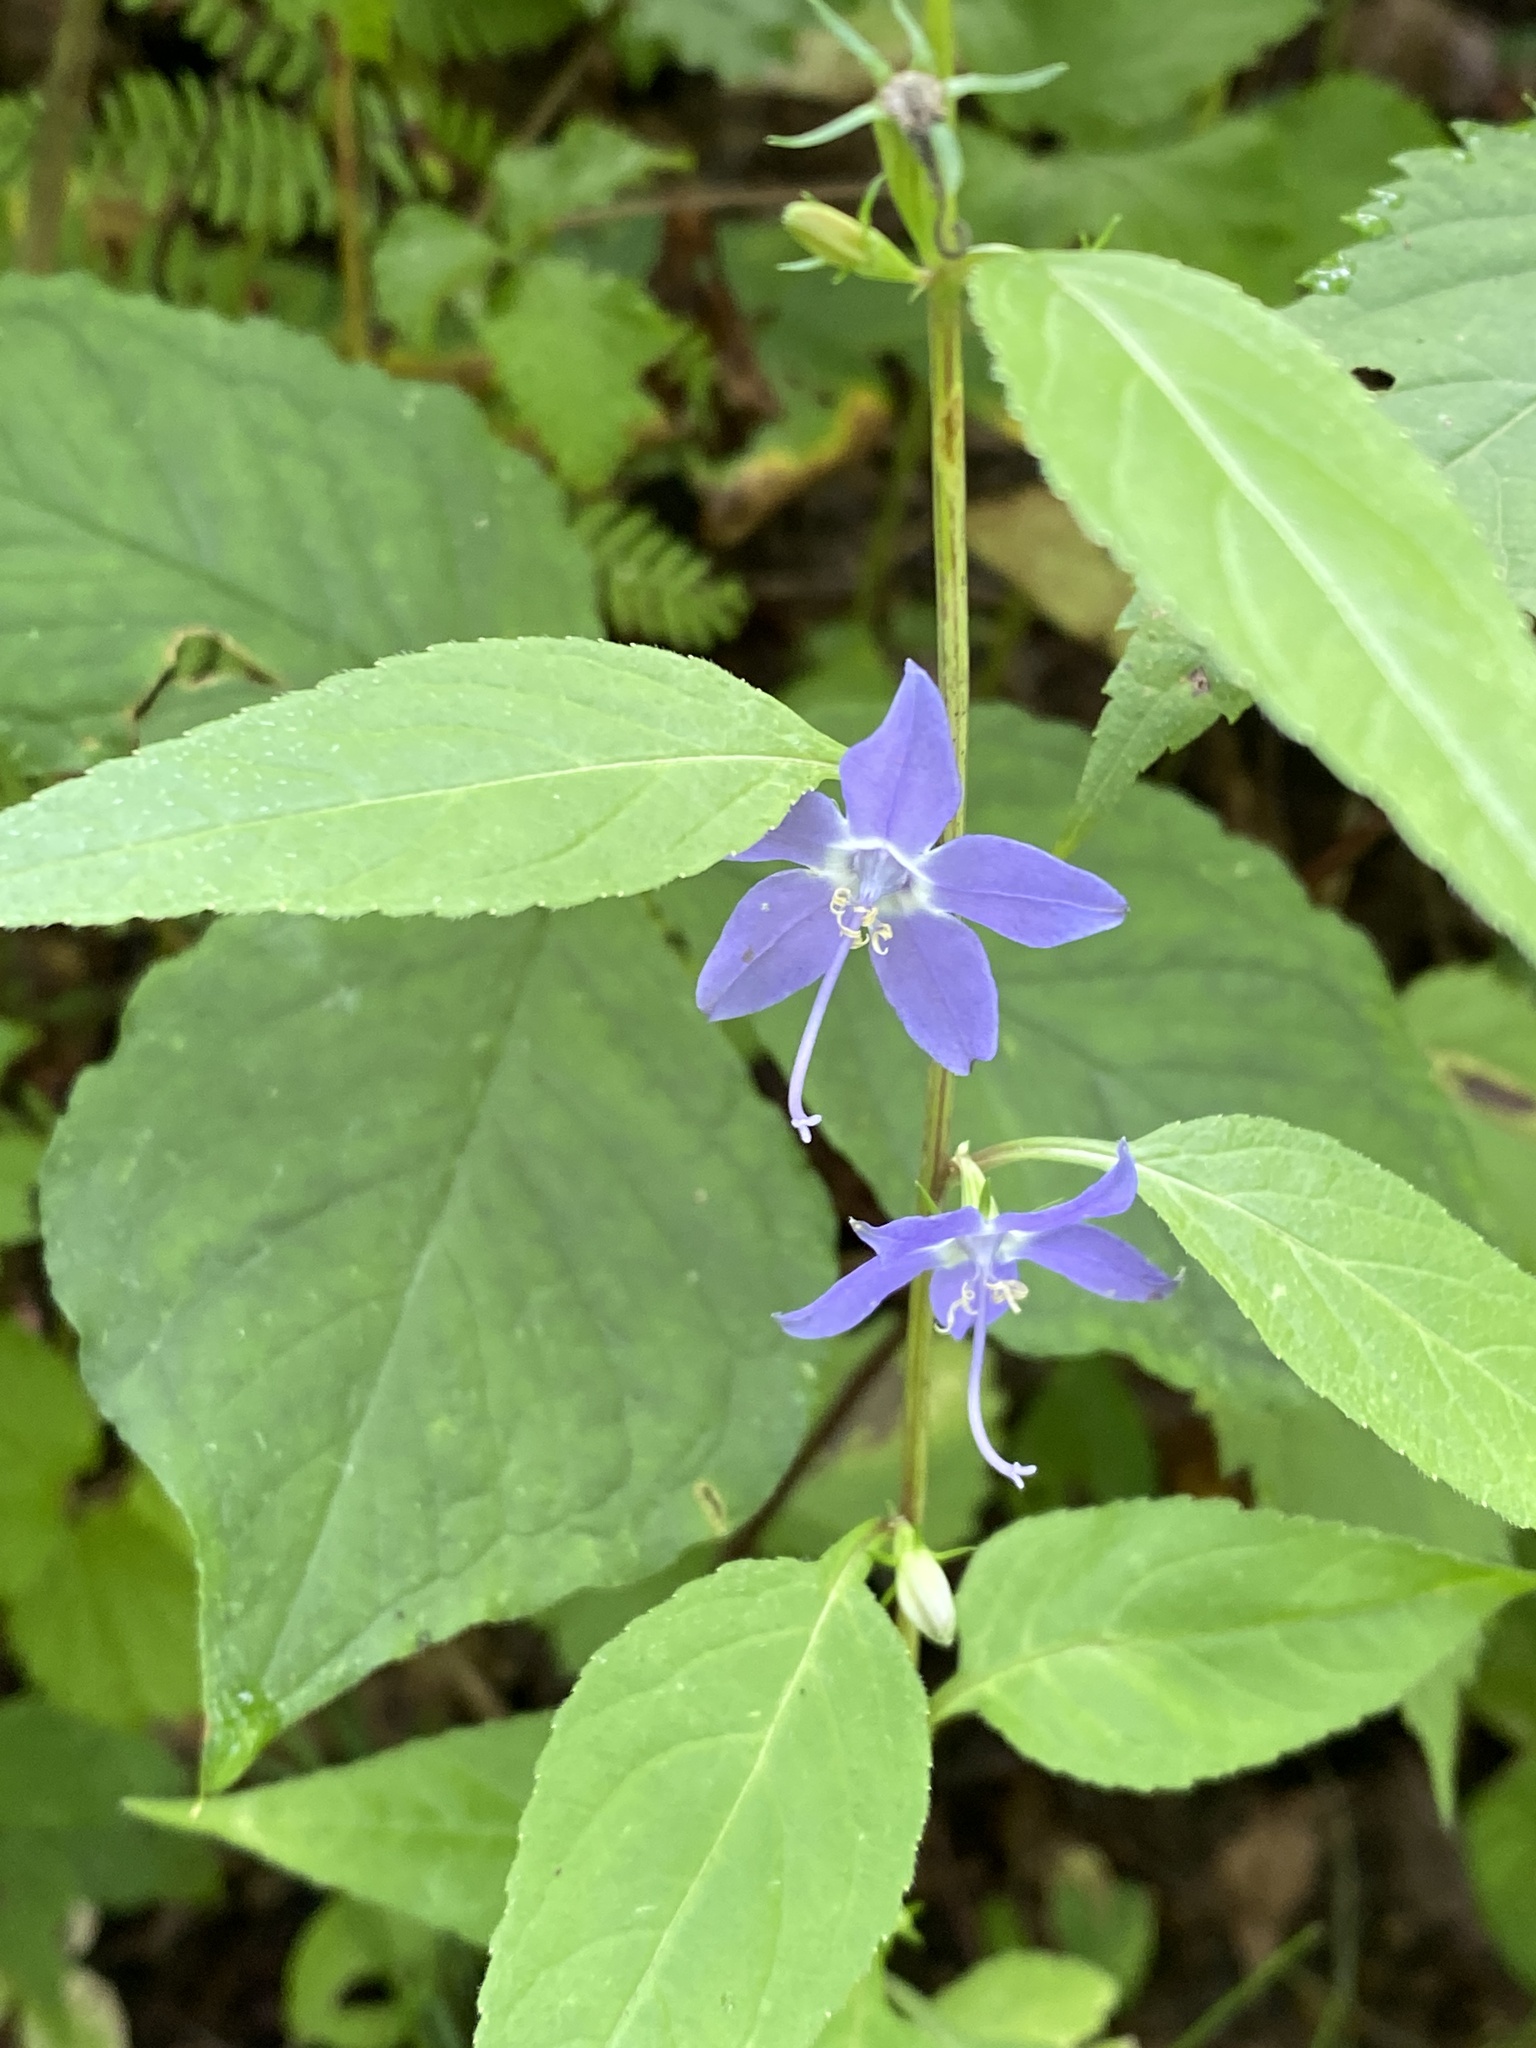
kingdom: Plantae
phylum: Tracheophyta
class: Magnoliopsida
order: Asterales
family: Campanulaceae
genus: Campanulastrum
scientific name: Campanulastrum americanum
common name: American bellflower
